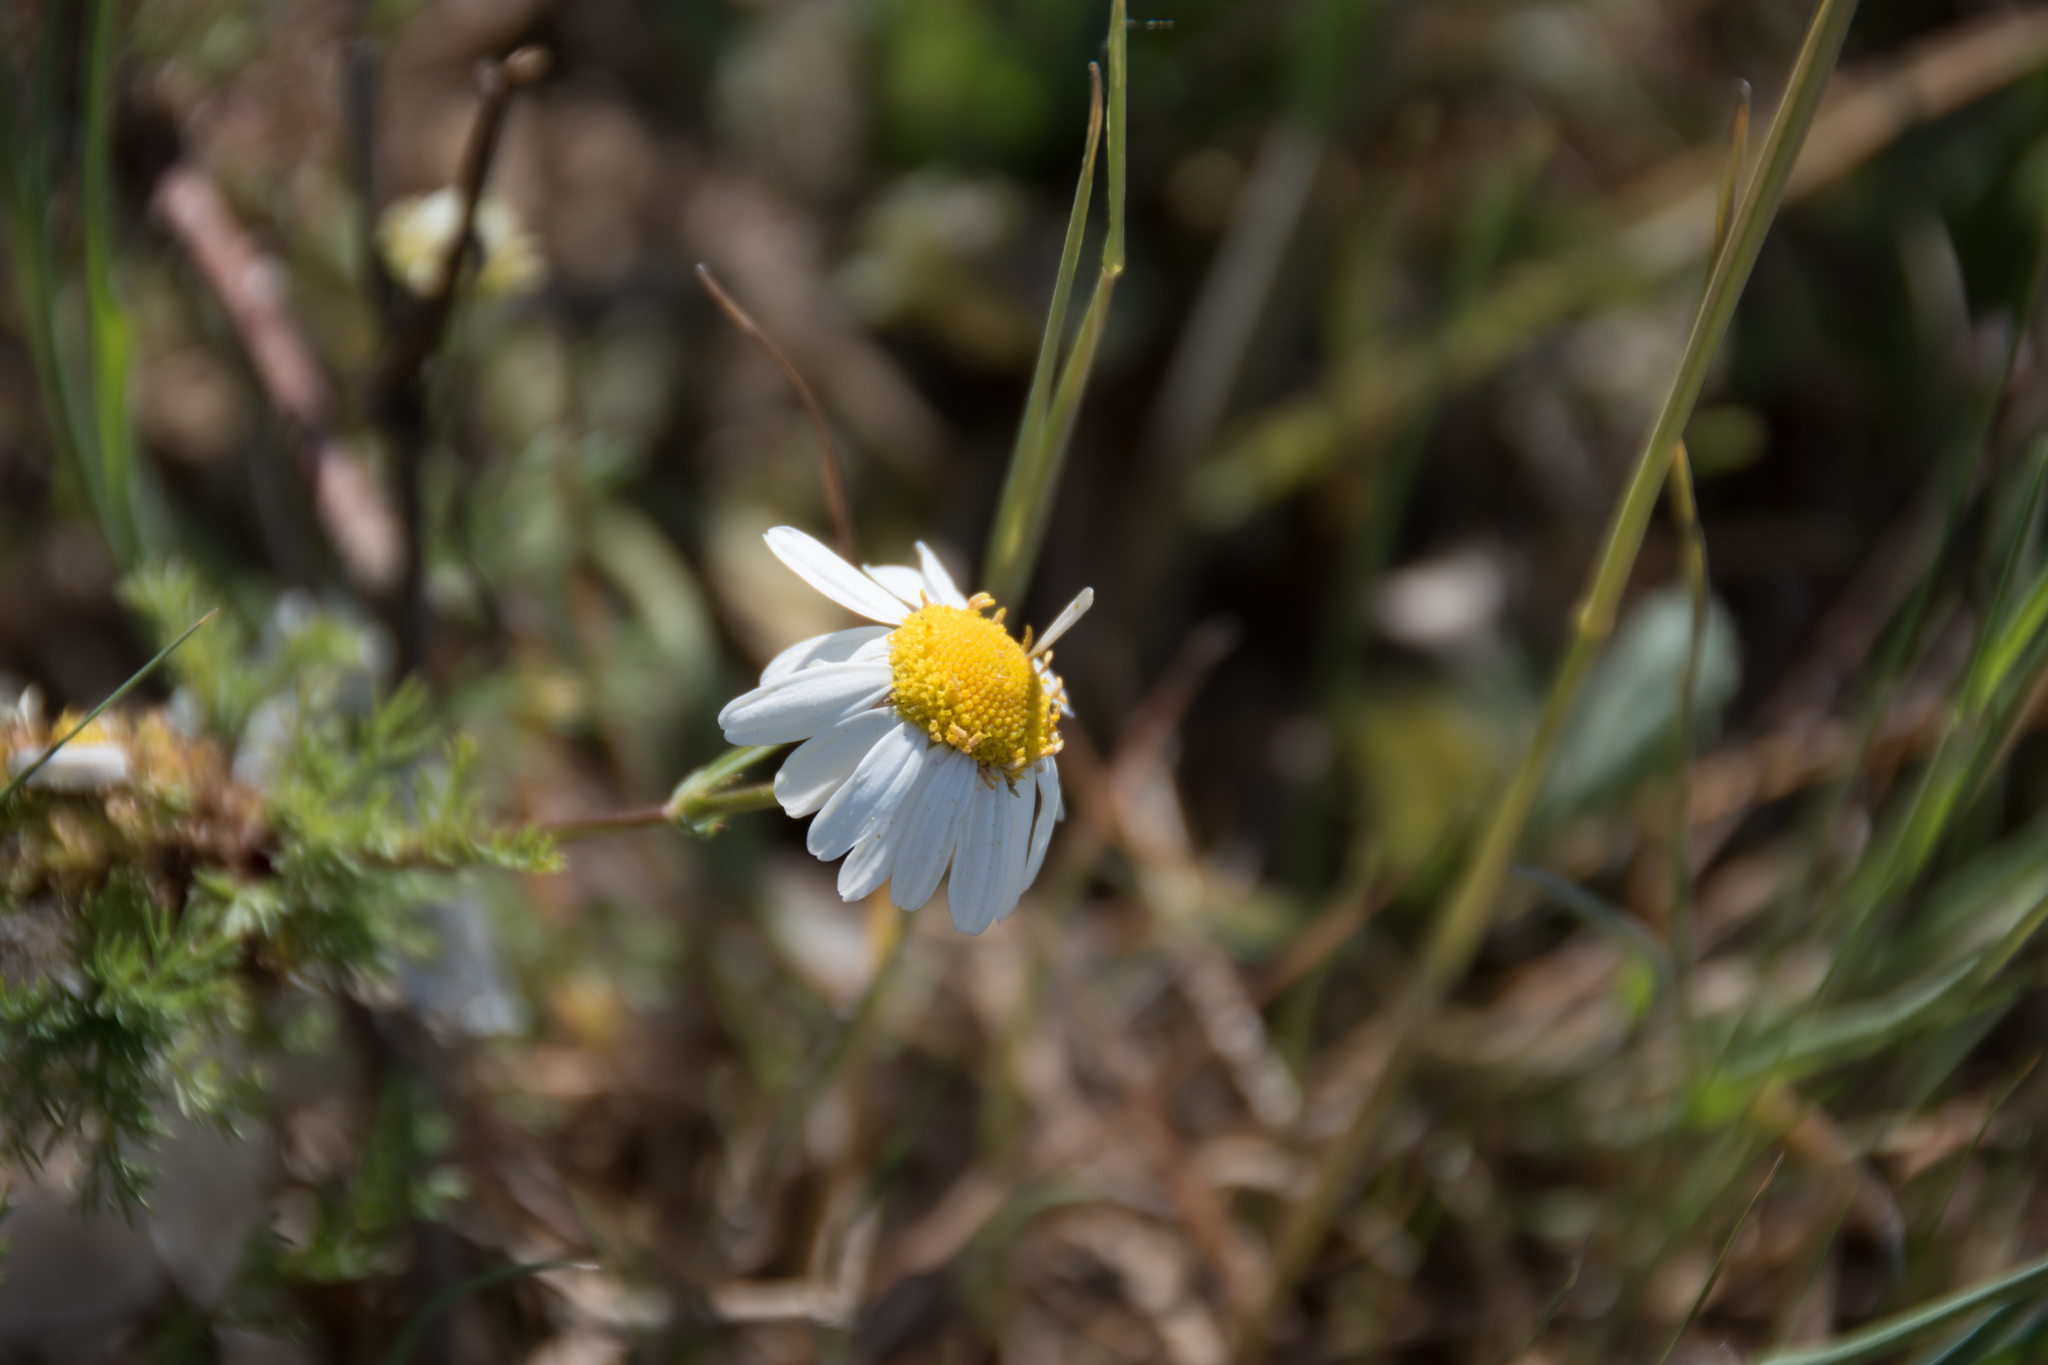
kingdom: Plantae
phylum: Tracheophyta
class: Magnoliopsida
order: Asterales
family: Asteraceae
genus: Matricaria
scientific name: Matricaria chamomilla
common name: Scented mayweed
